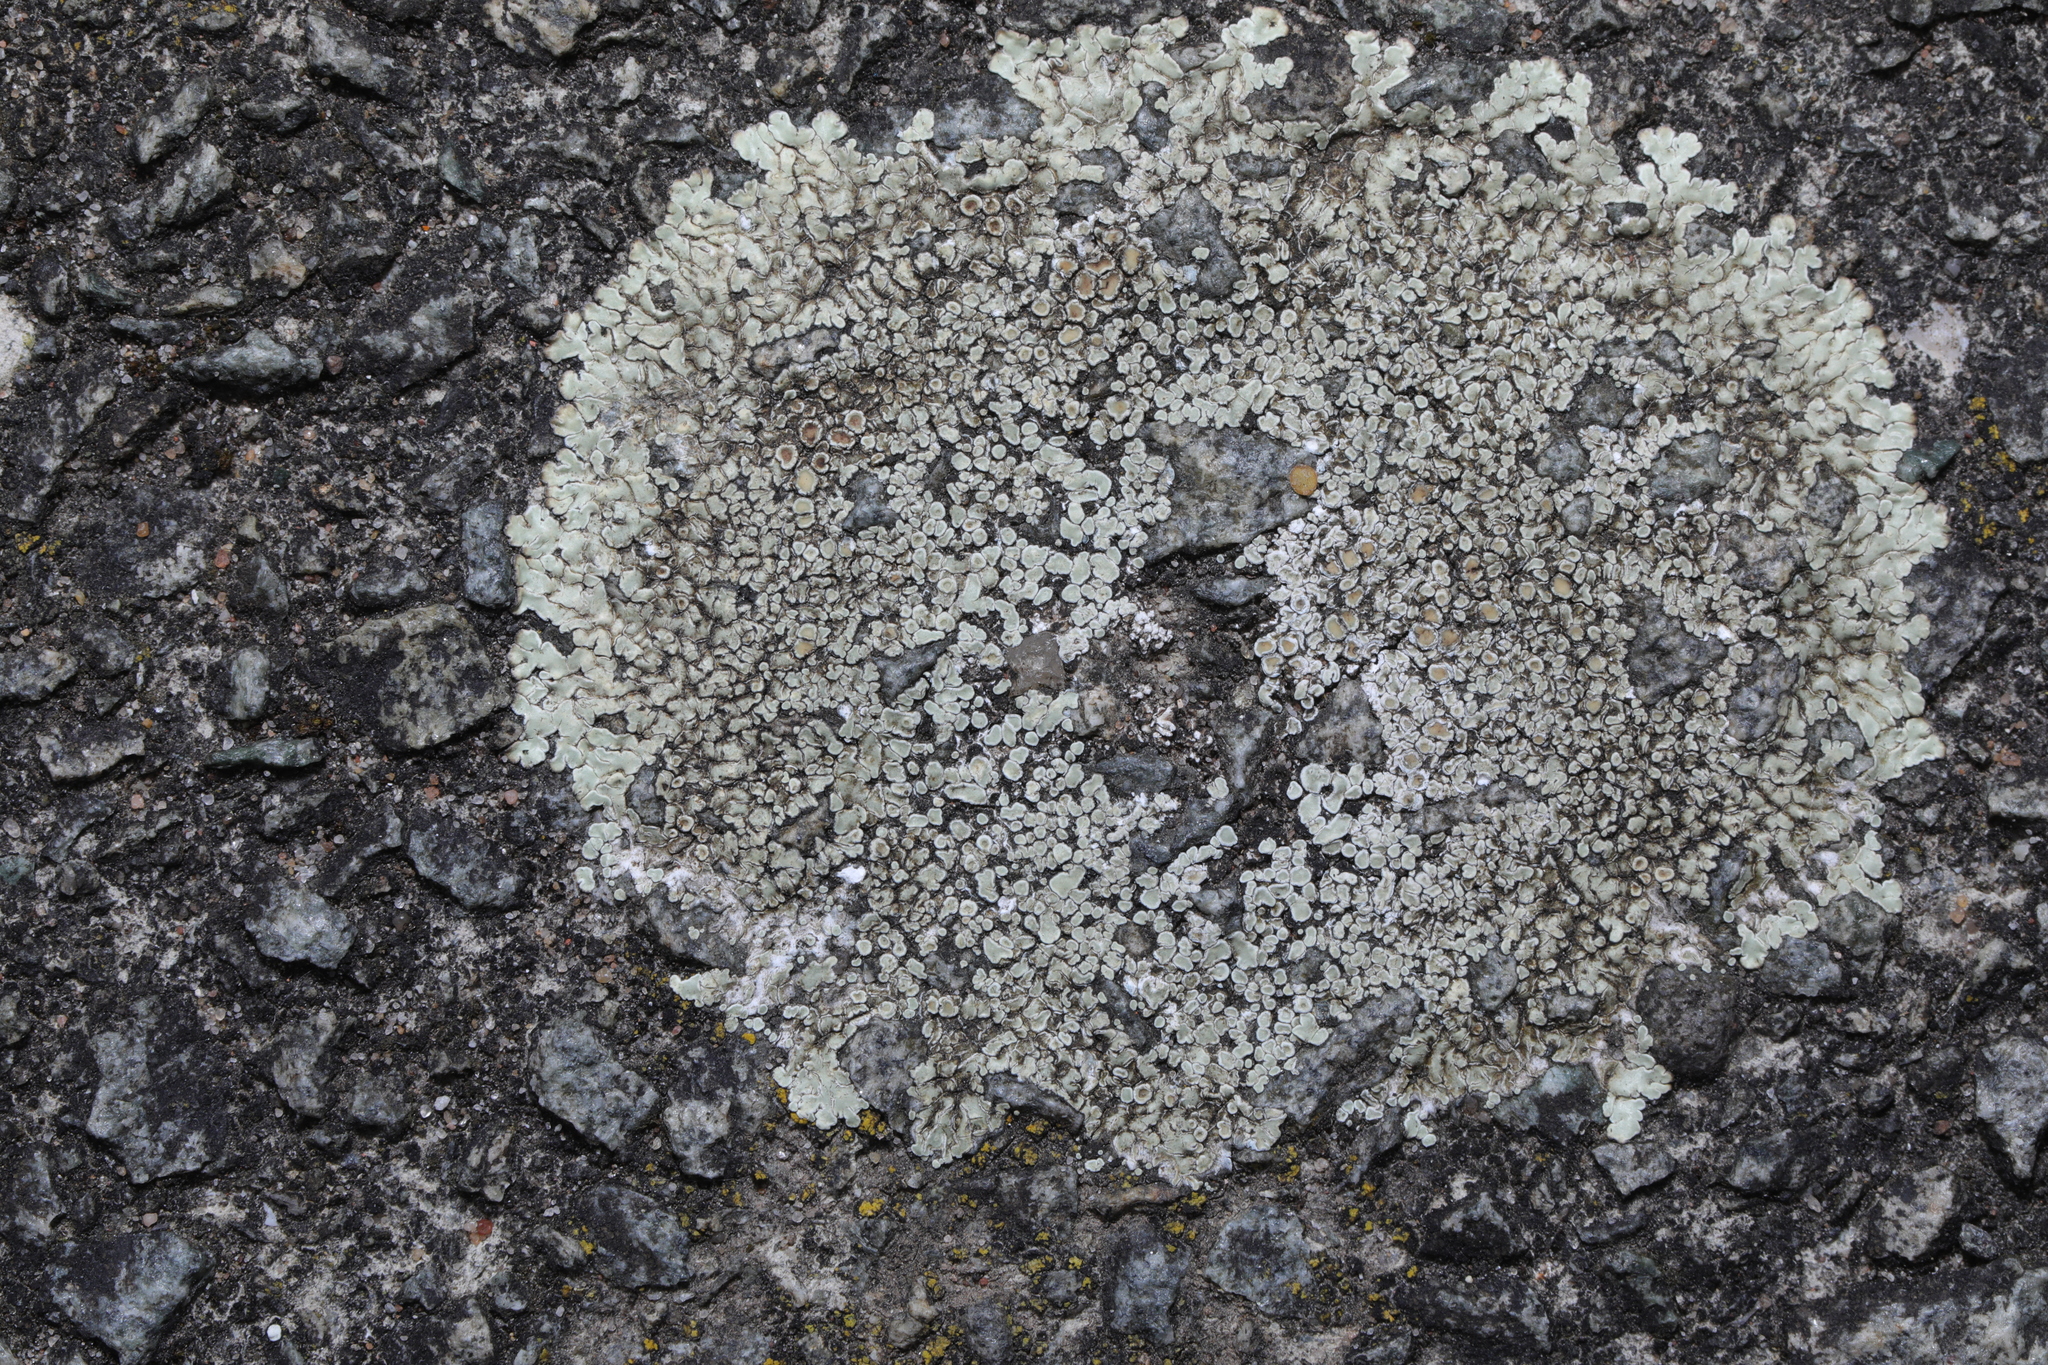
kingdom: Fungi
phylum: Ascomycota
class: Lecanoromycetes
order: Lecanorales
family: Lecanoraceae
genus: Protoparmeliopsis
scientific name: Protoparmeliopsis muralis
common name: Stonewall rim lichen
